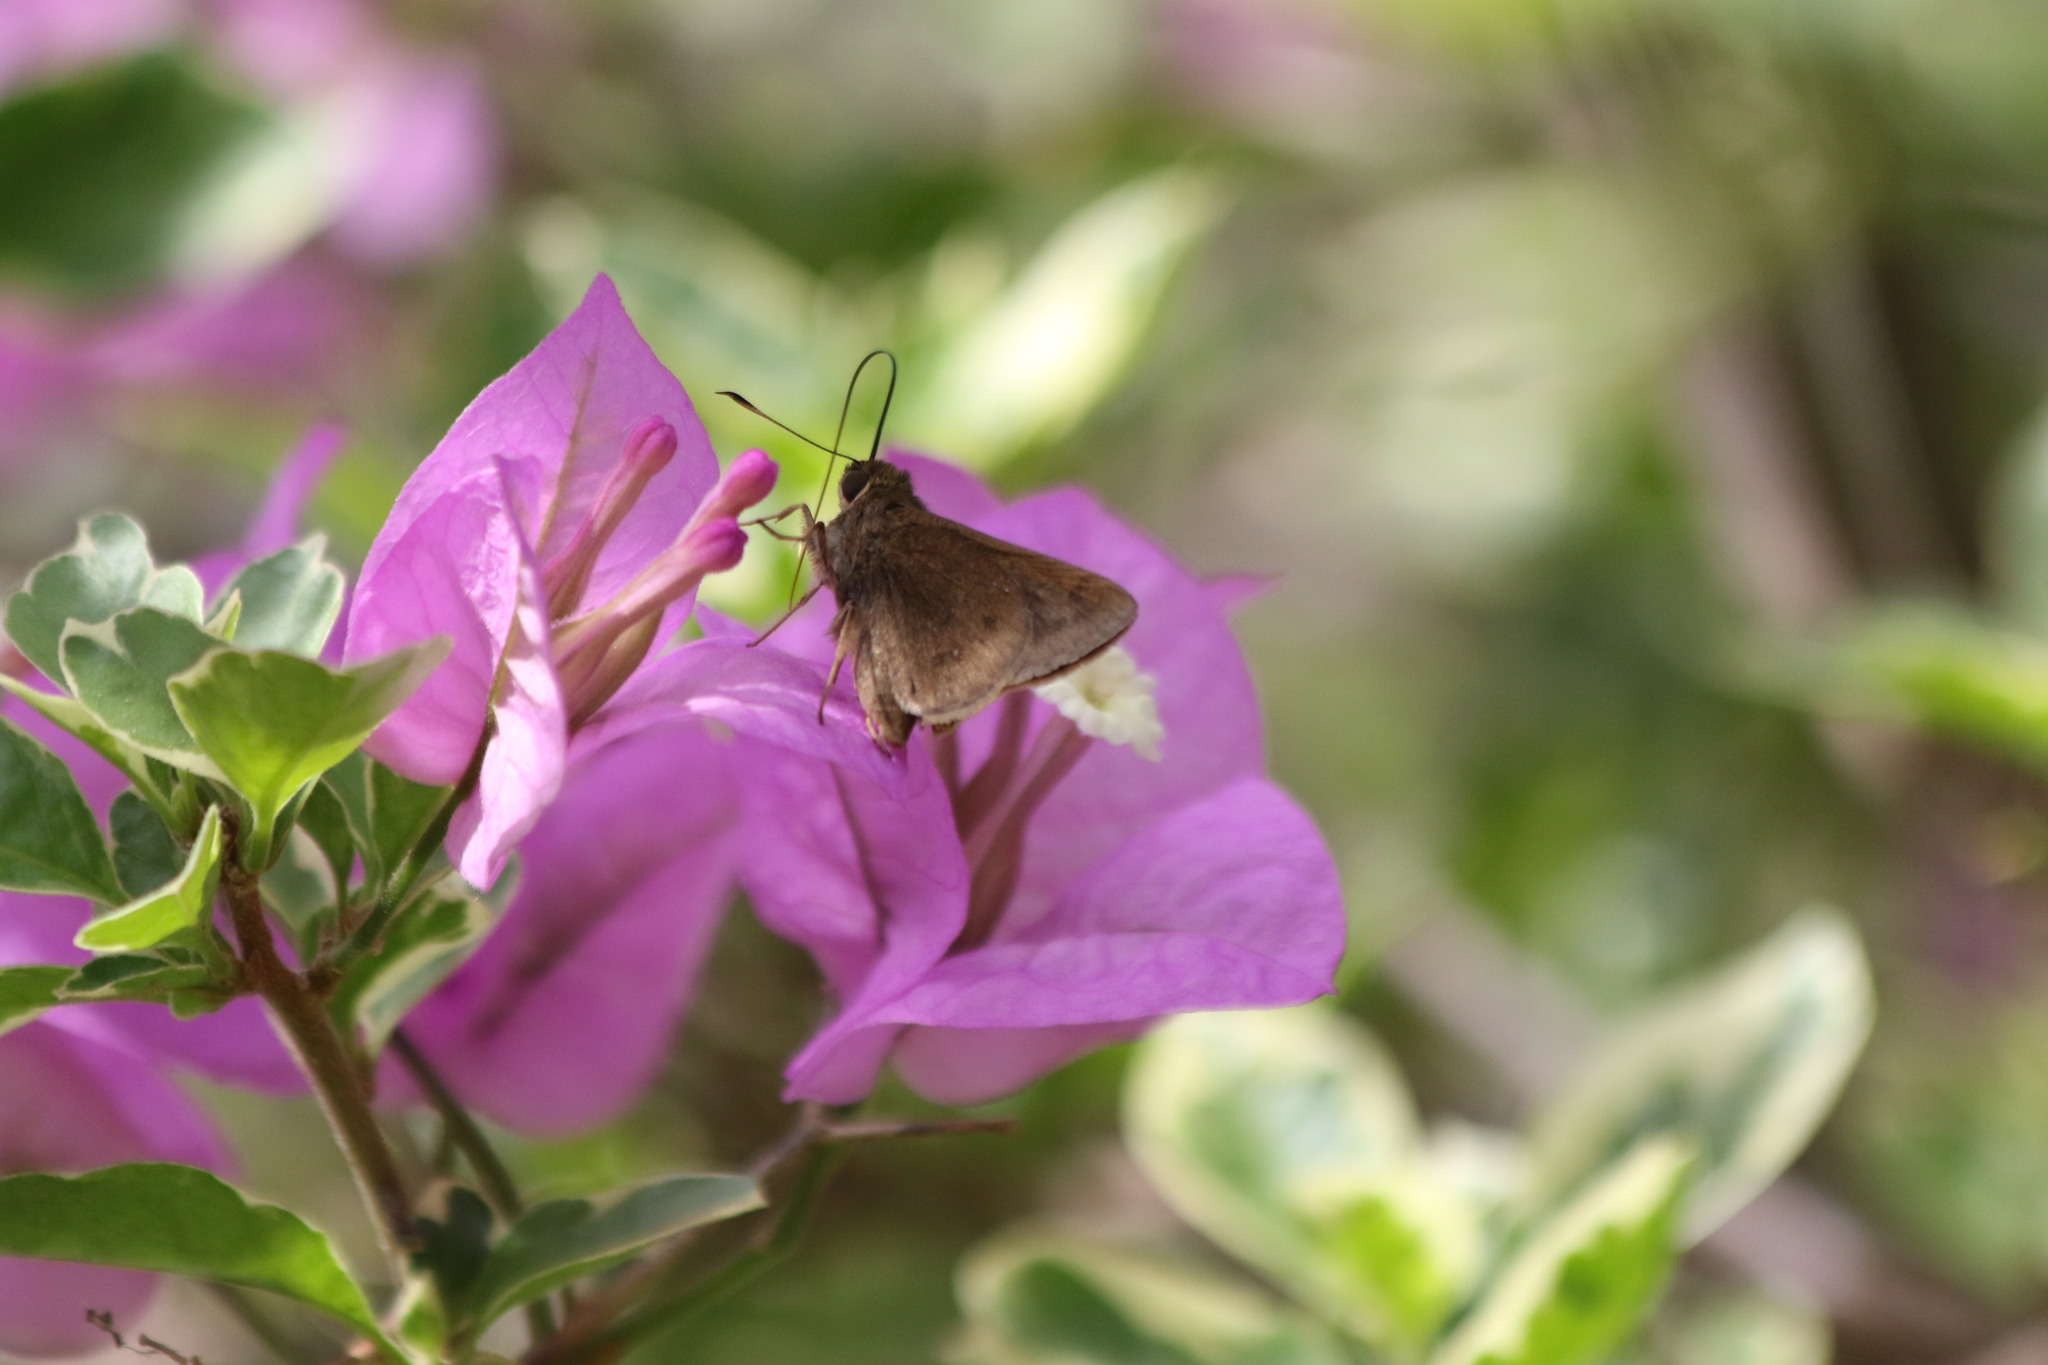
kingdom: Animalia
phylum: Arthropoda
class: Insecta
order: Lepidoptera
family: Hesperiidae
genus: Decinea
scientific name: Decinea percosius
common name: Double-dotted skipper
